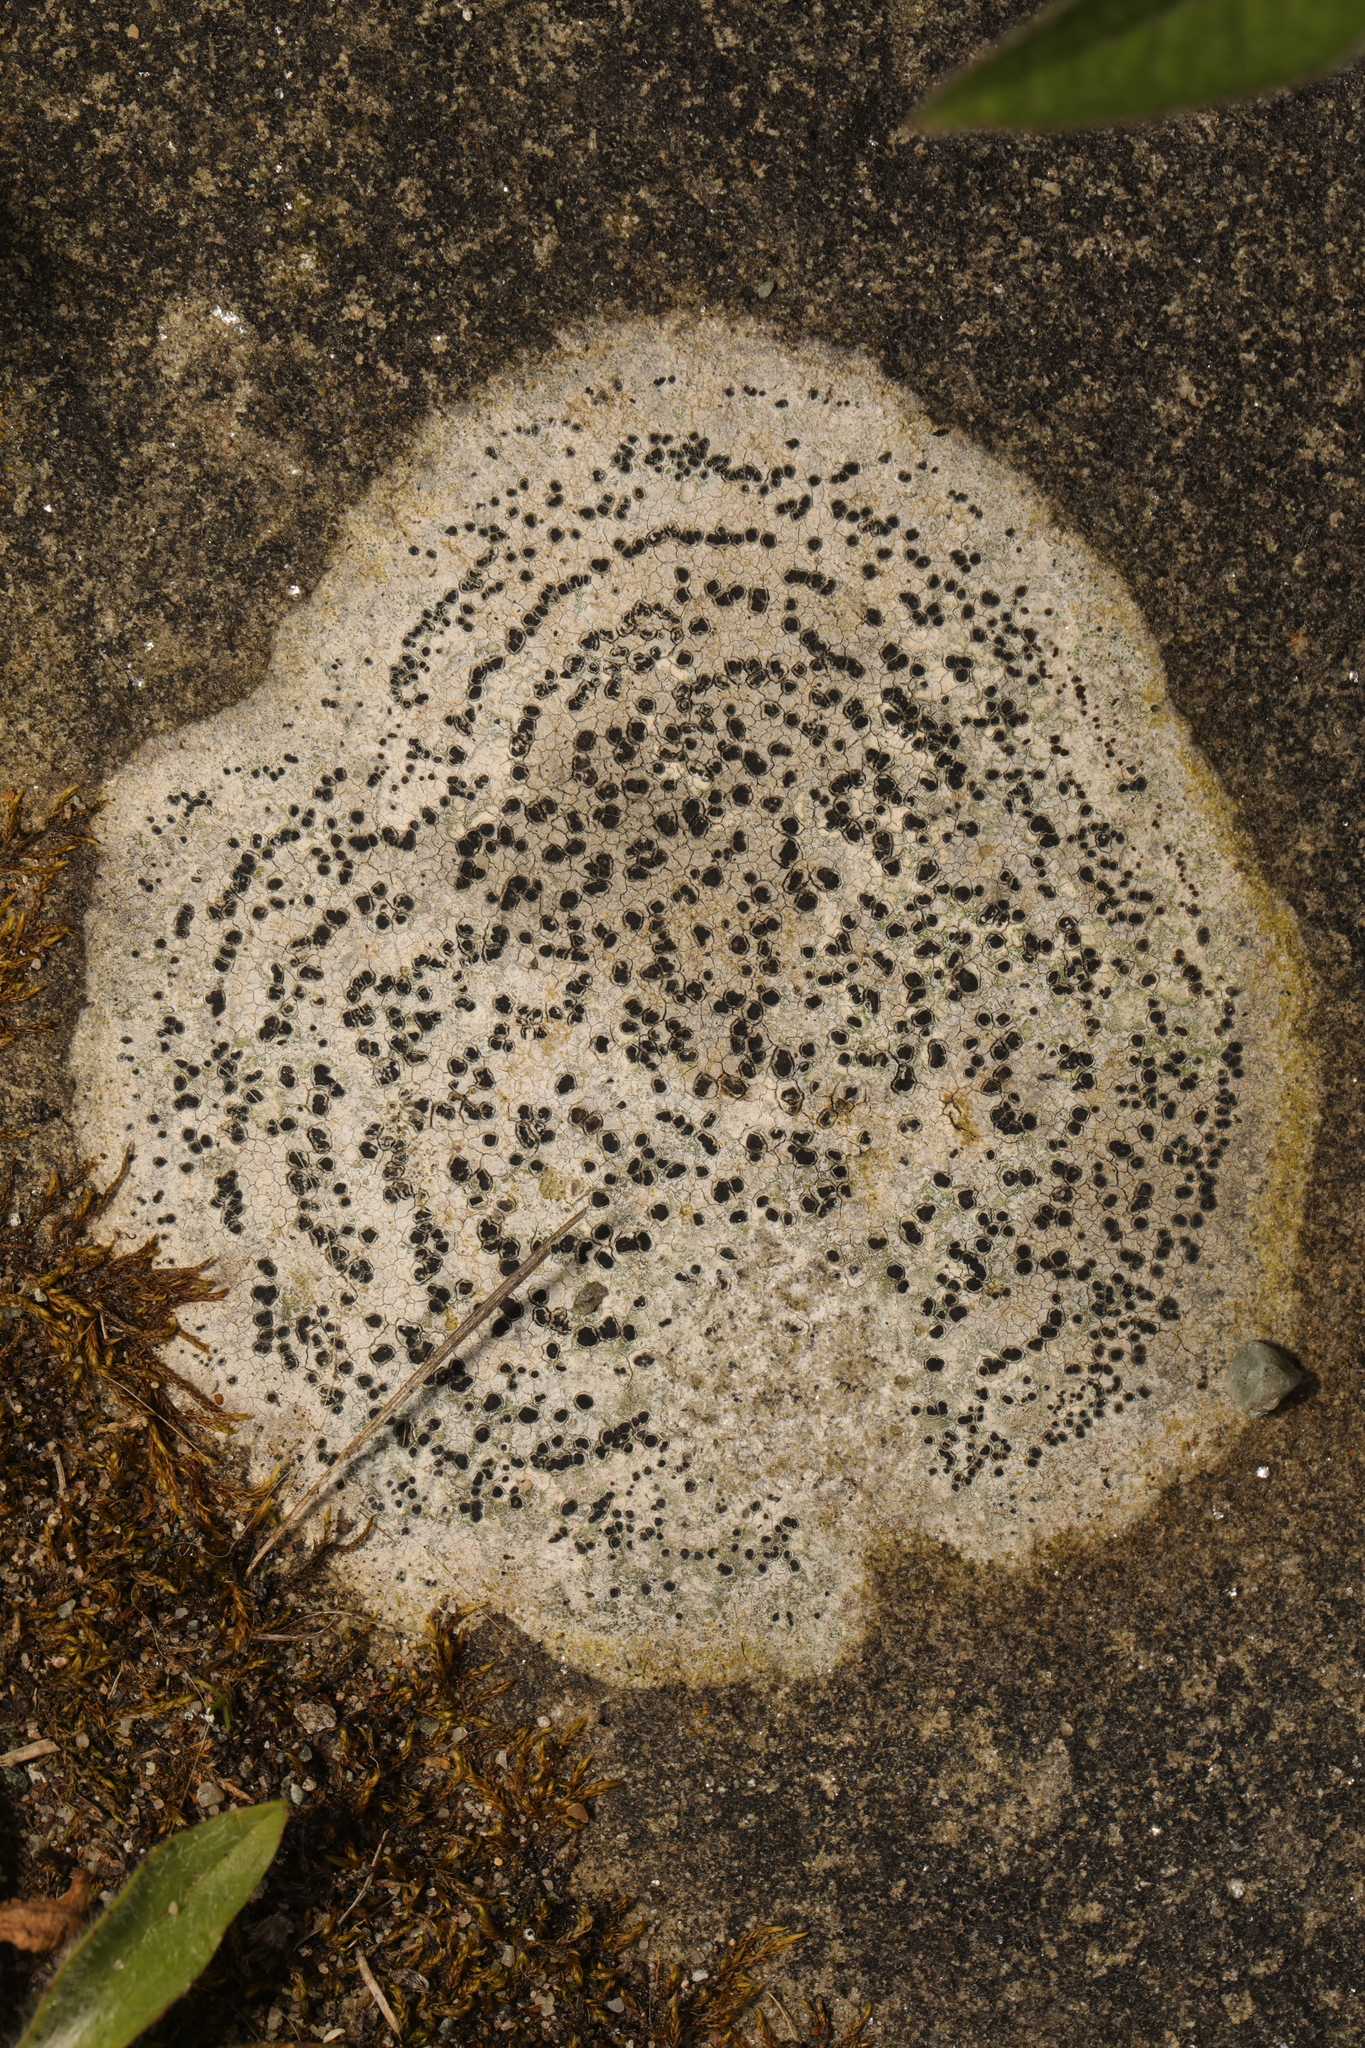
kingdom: Fungi
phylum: Ascomycota
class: Lecanoromycetes
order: Rhizocarpales
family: Rhizocarpaceae
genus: Rhizocarpon
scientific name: Rhizocarpon petraeum
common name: Rock-loving map lichen
